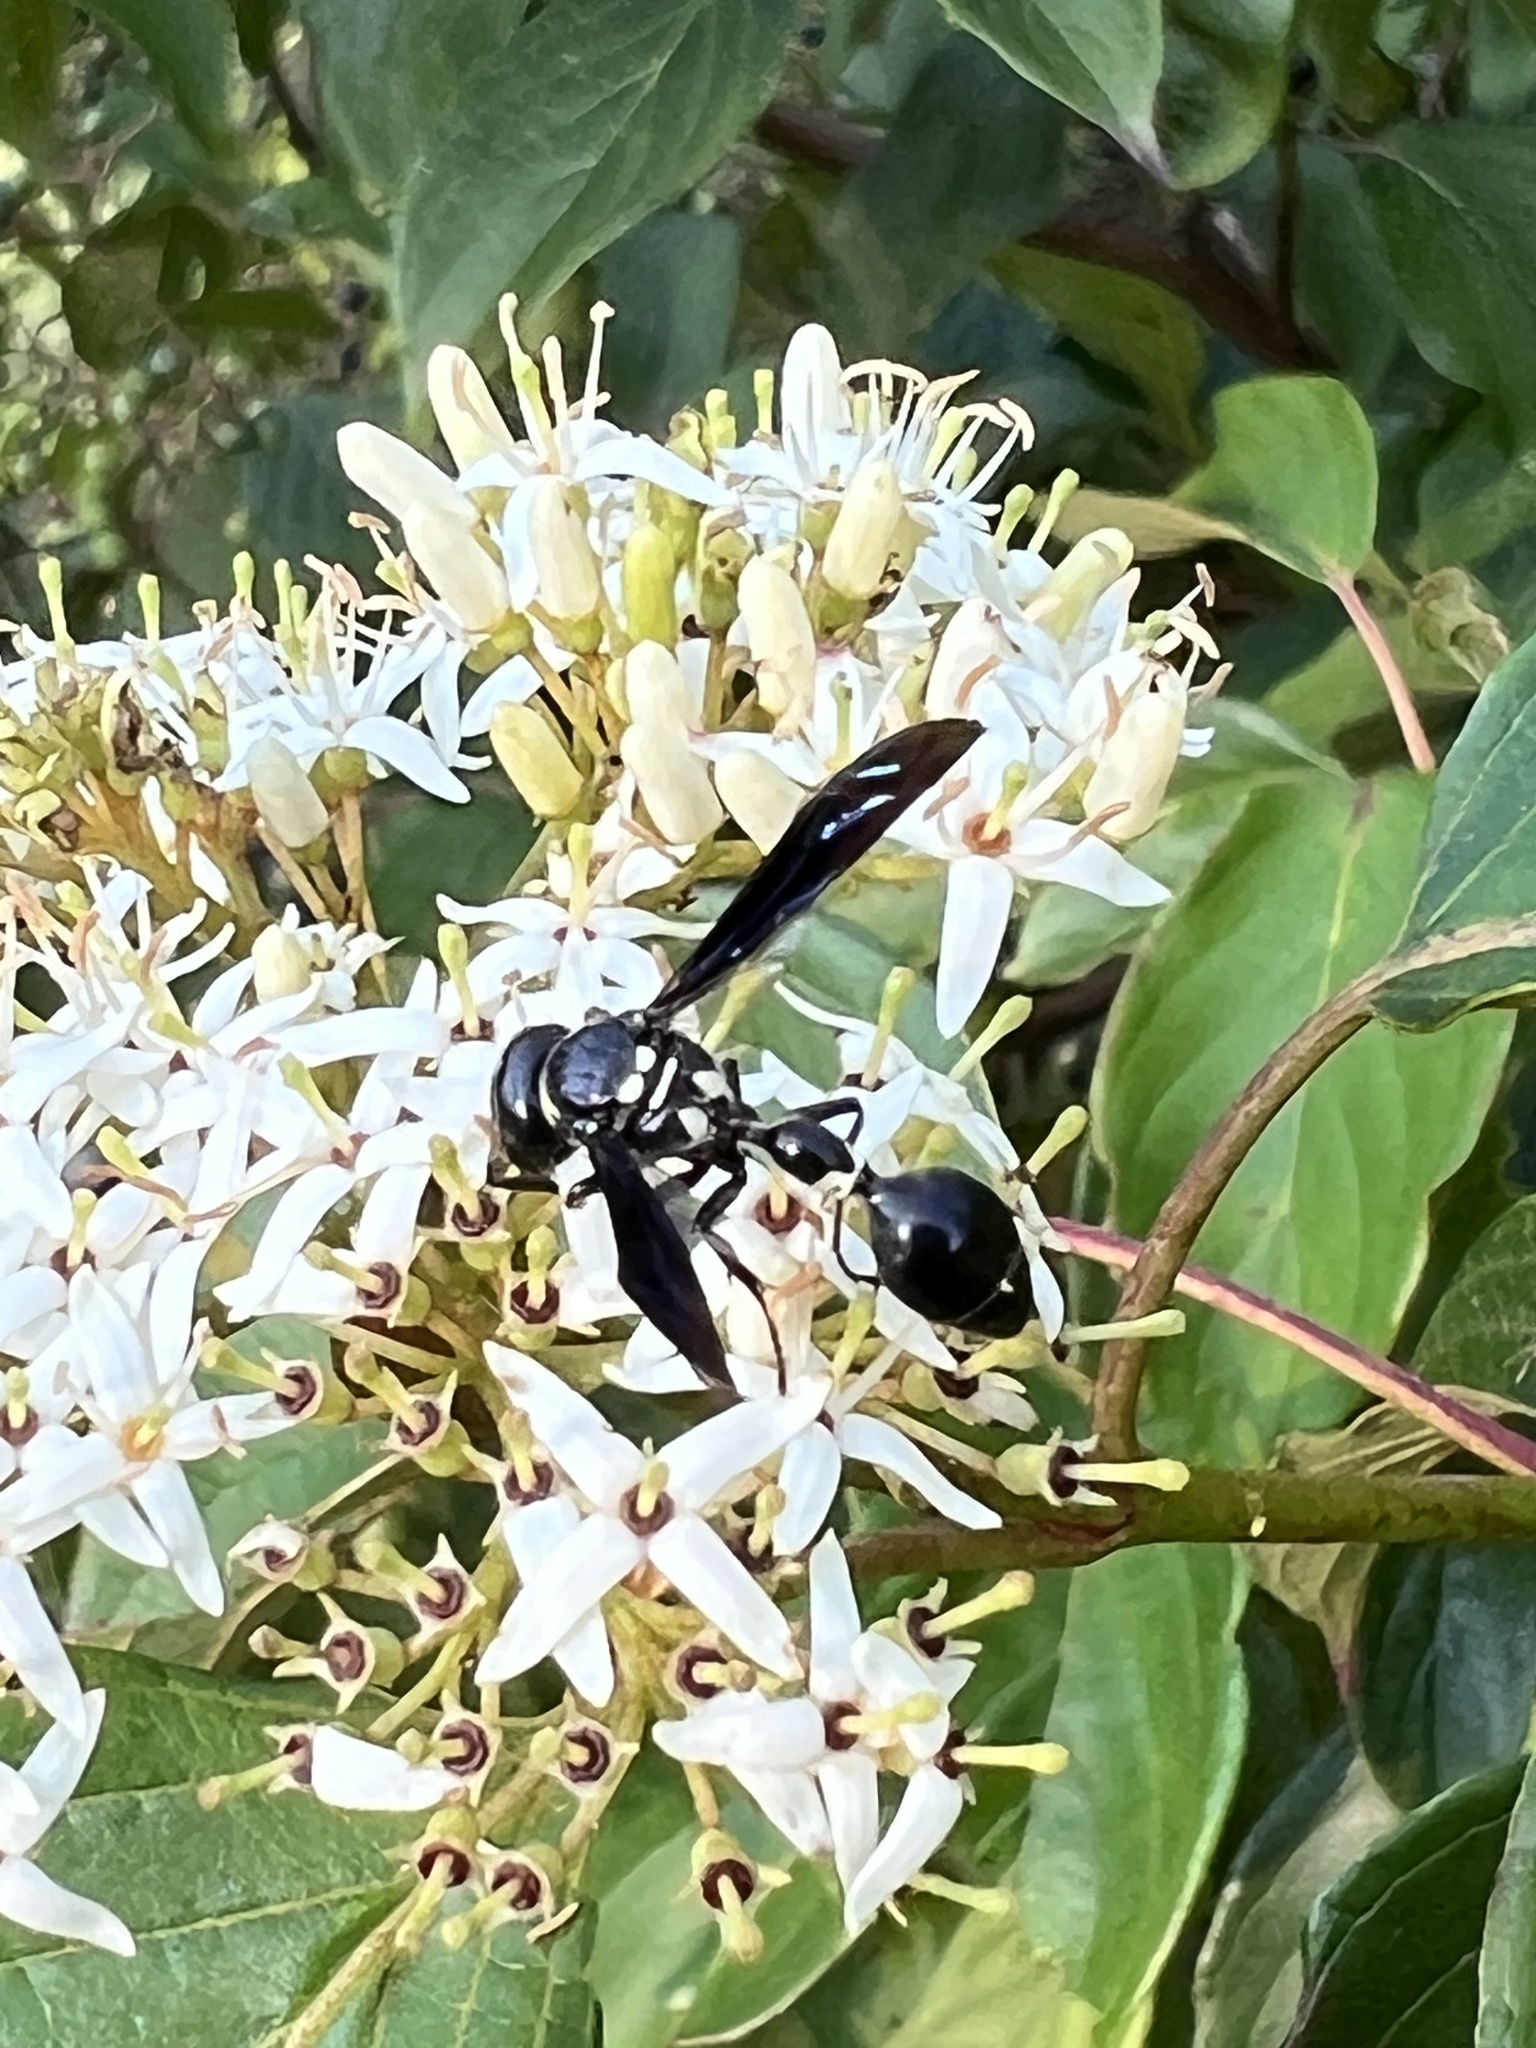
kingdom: Animalia
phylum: Arthropoda
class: Insecta
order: Hymenoptera
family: Eumenidae
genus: Zethus
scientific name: Zethus spinipes
